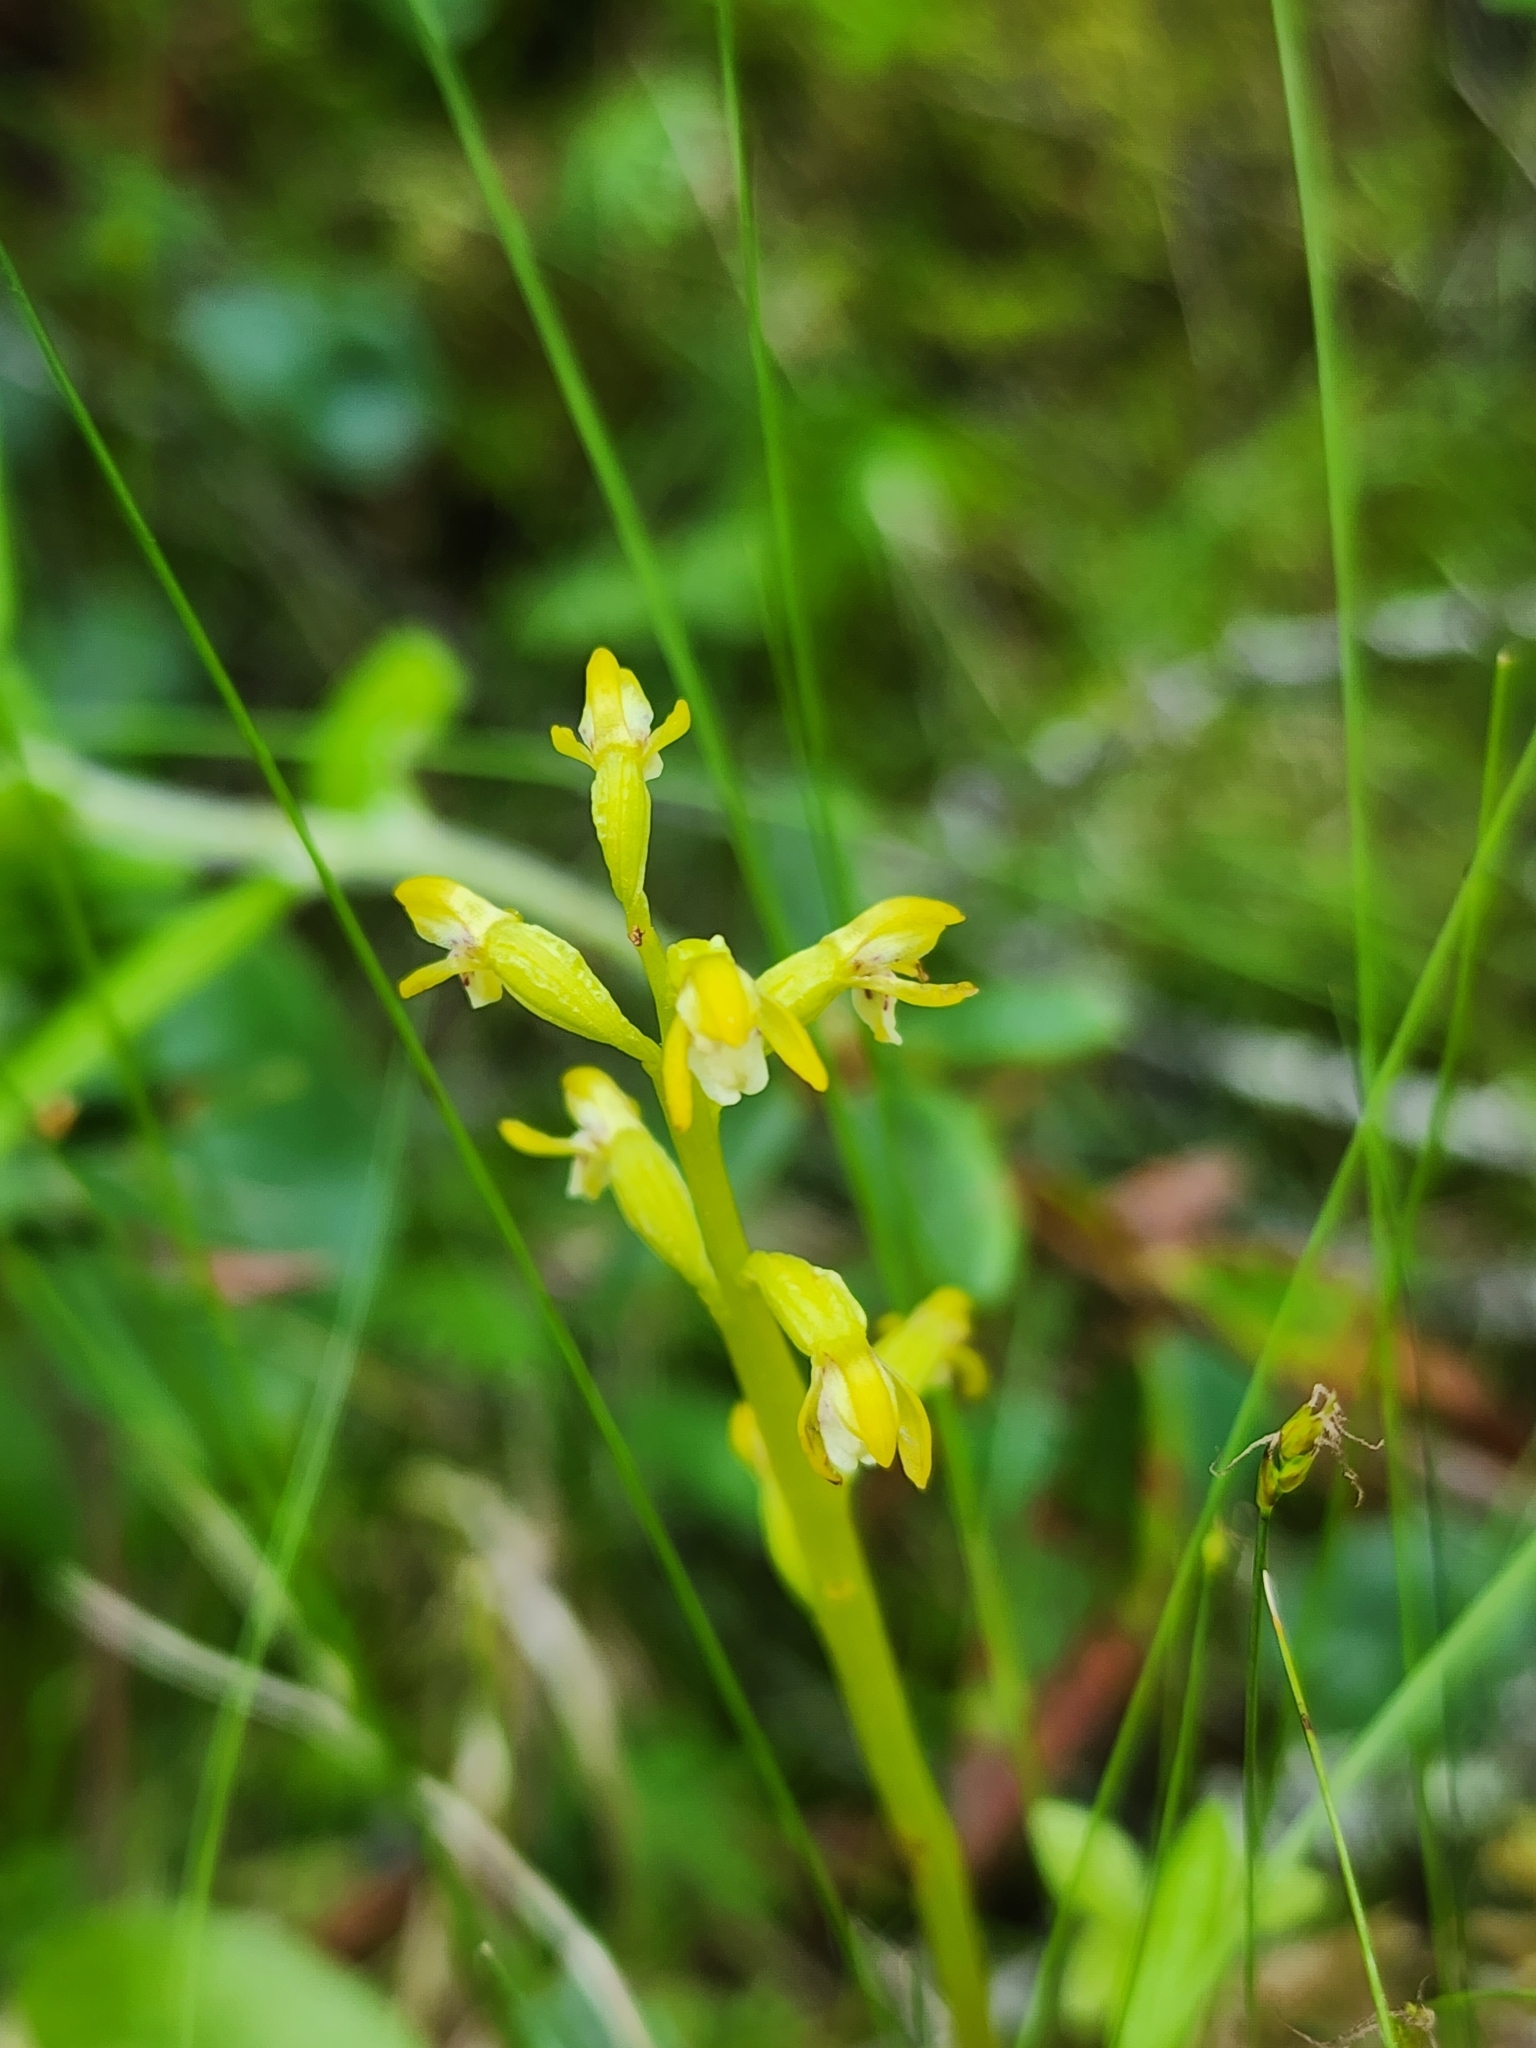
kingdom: Plantae
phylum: Tracheophyta
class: Liliopsida
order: Asparagales
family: Orchidaceae
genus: Corallorhiza
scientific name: Corallorhiza trifida
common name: Yellow coralroot
